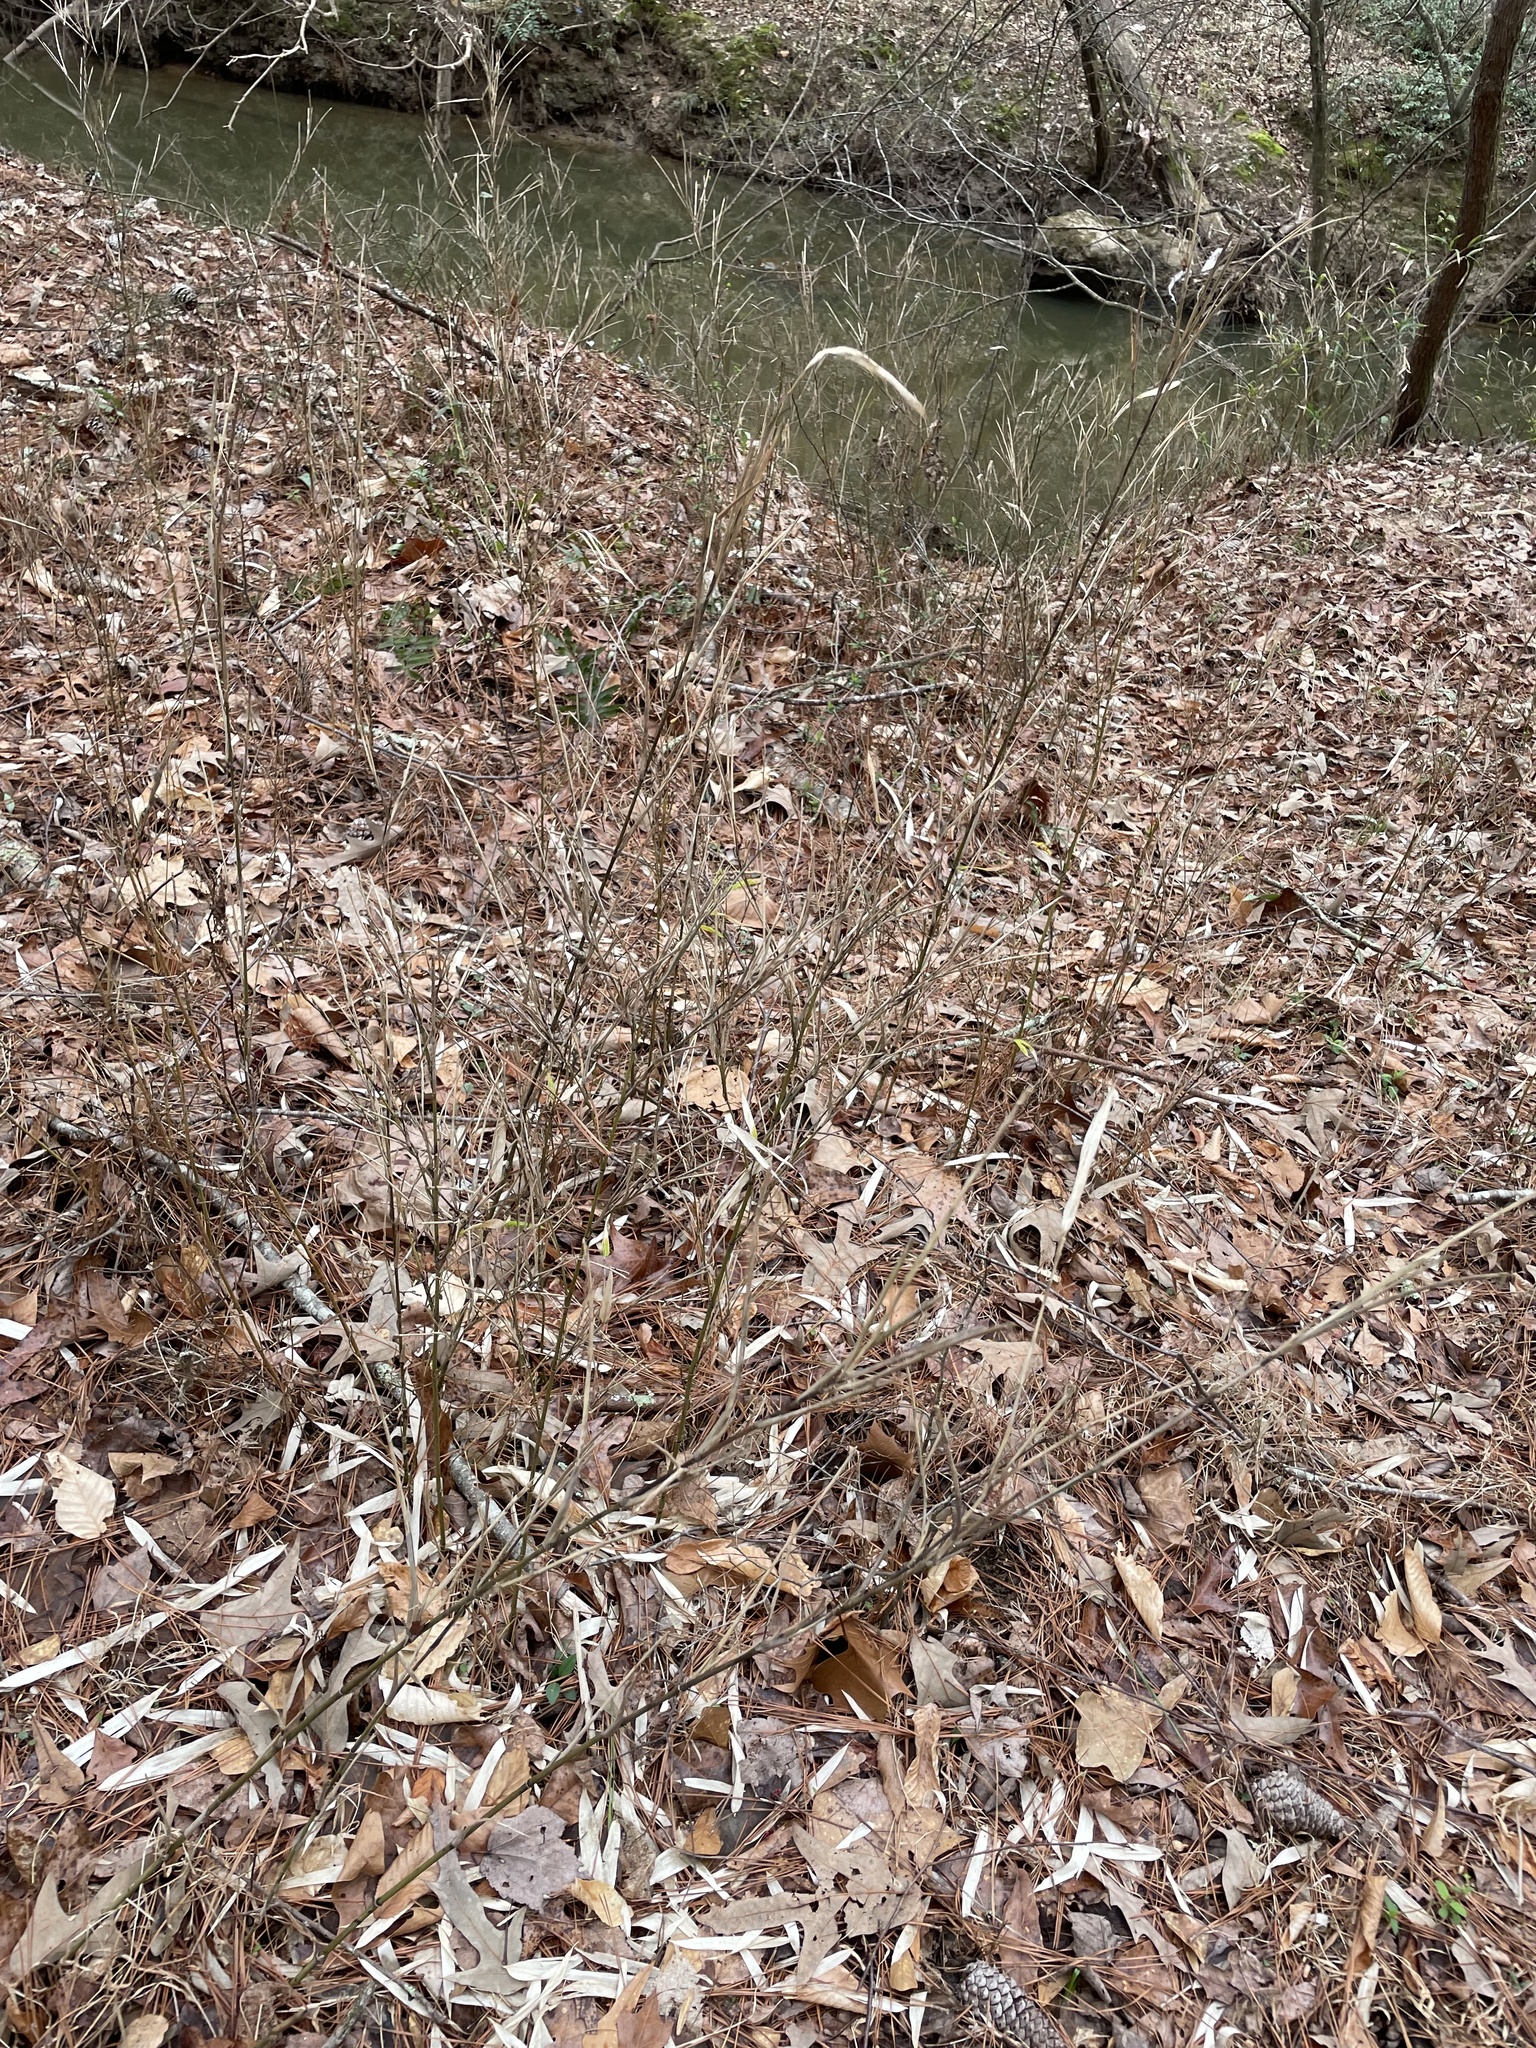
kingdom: Plantae
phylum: Tracheophyta
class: Liliopsida
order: Poales
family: Poaceae
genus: Arundinaria
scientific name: Arundinaria appalachiana
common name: Hill cane
